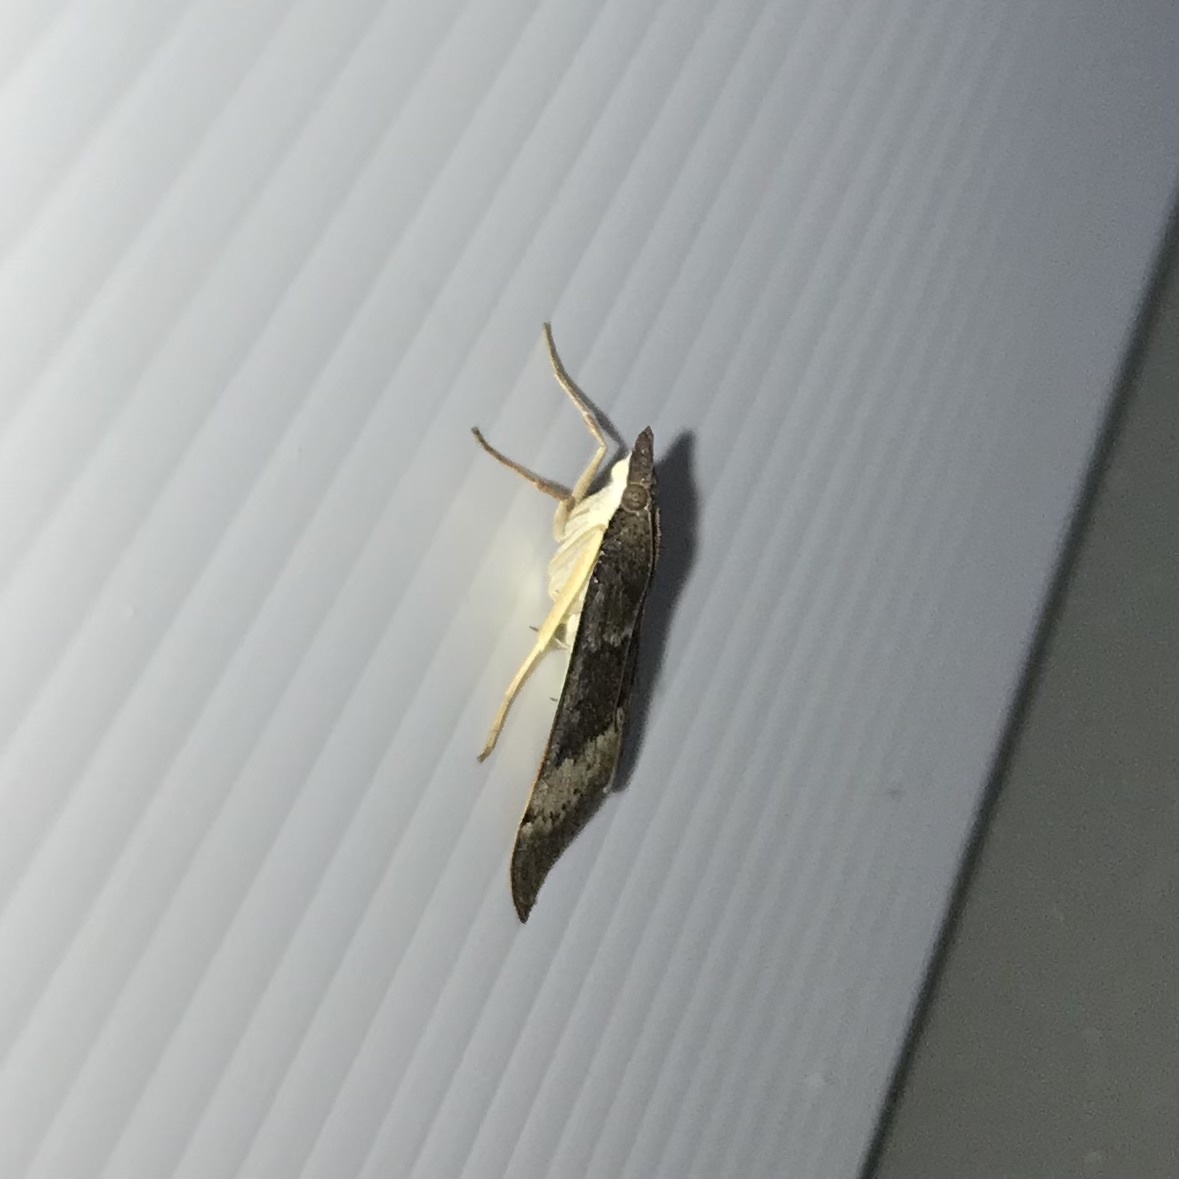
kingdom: Animalia
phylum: Arthropoda
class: Insecta
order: Lepidoptera
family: Crambidae
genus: Uresiphita
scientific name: Uresiphita ornithopteralis
